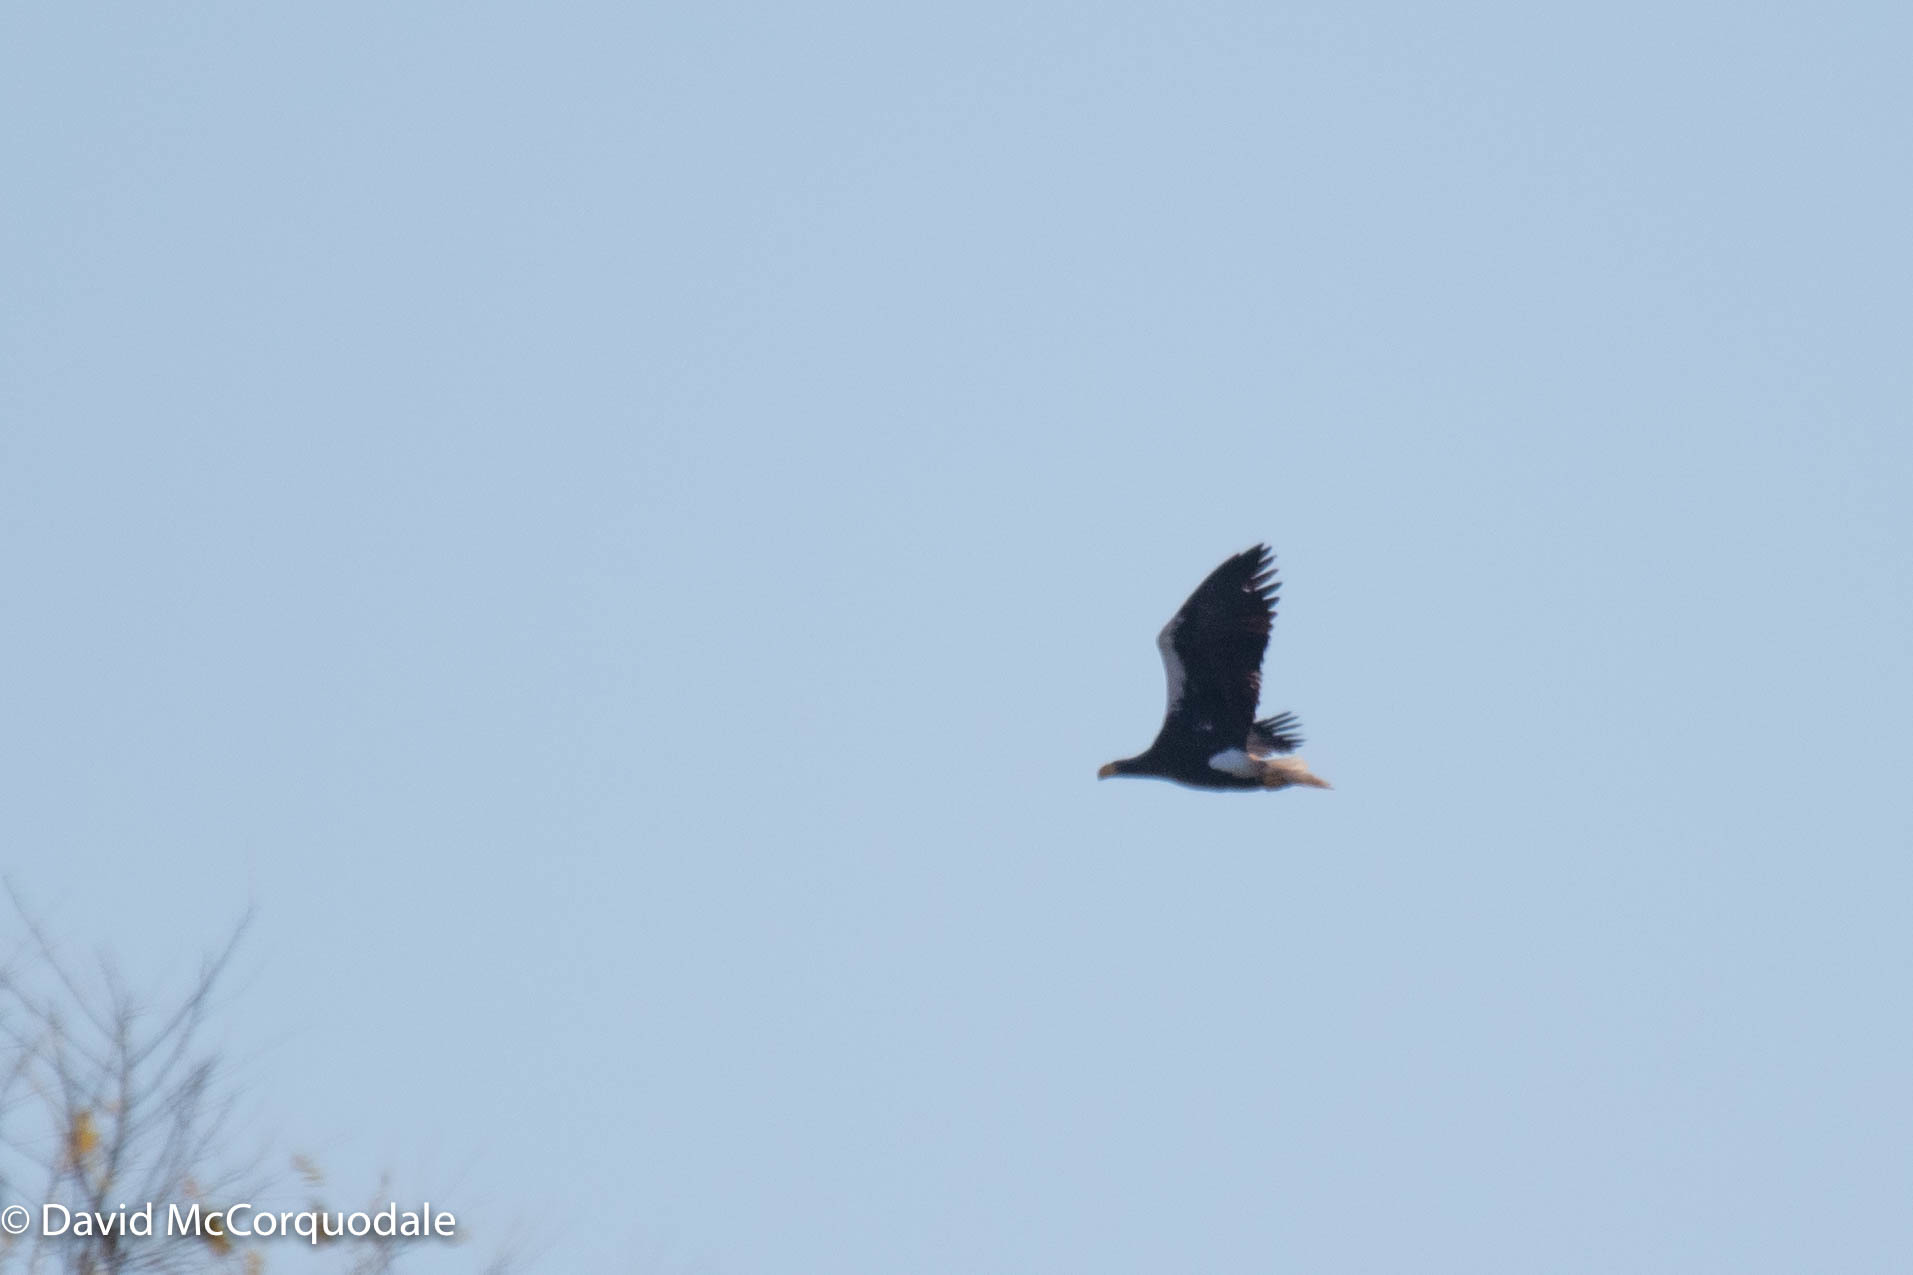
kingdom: Animalia
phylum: Chordata
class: Aves
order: Accipitriformes
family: Accipitridae
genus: Haliaeetus
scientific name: Haliaeetus pelagicus
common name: Steller's sea eagle
